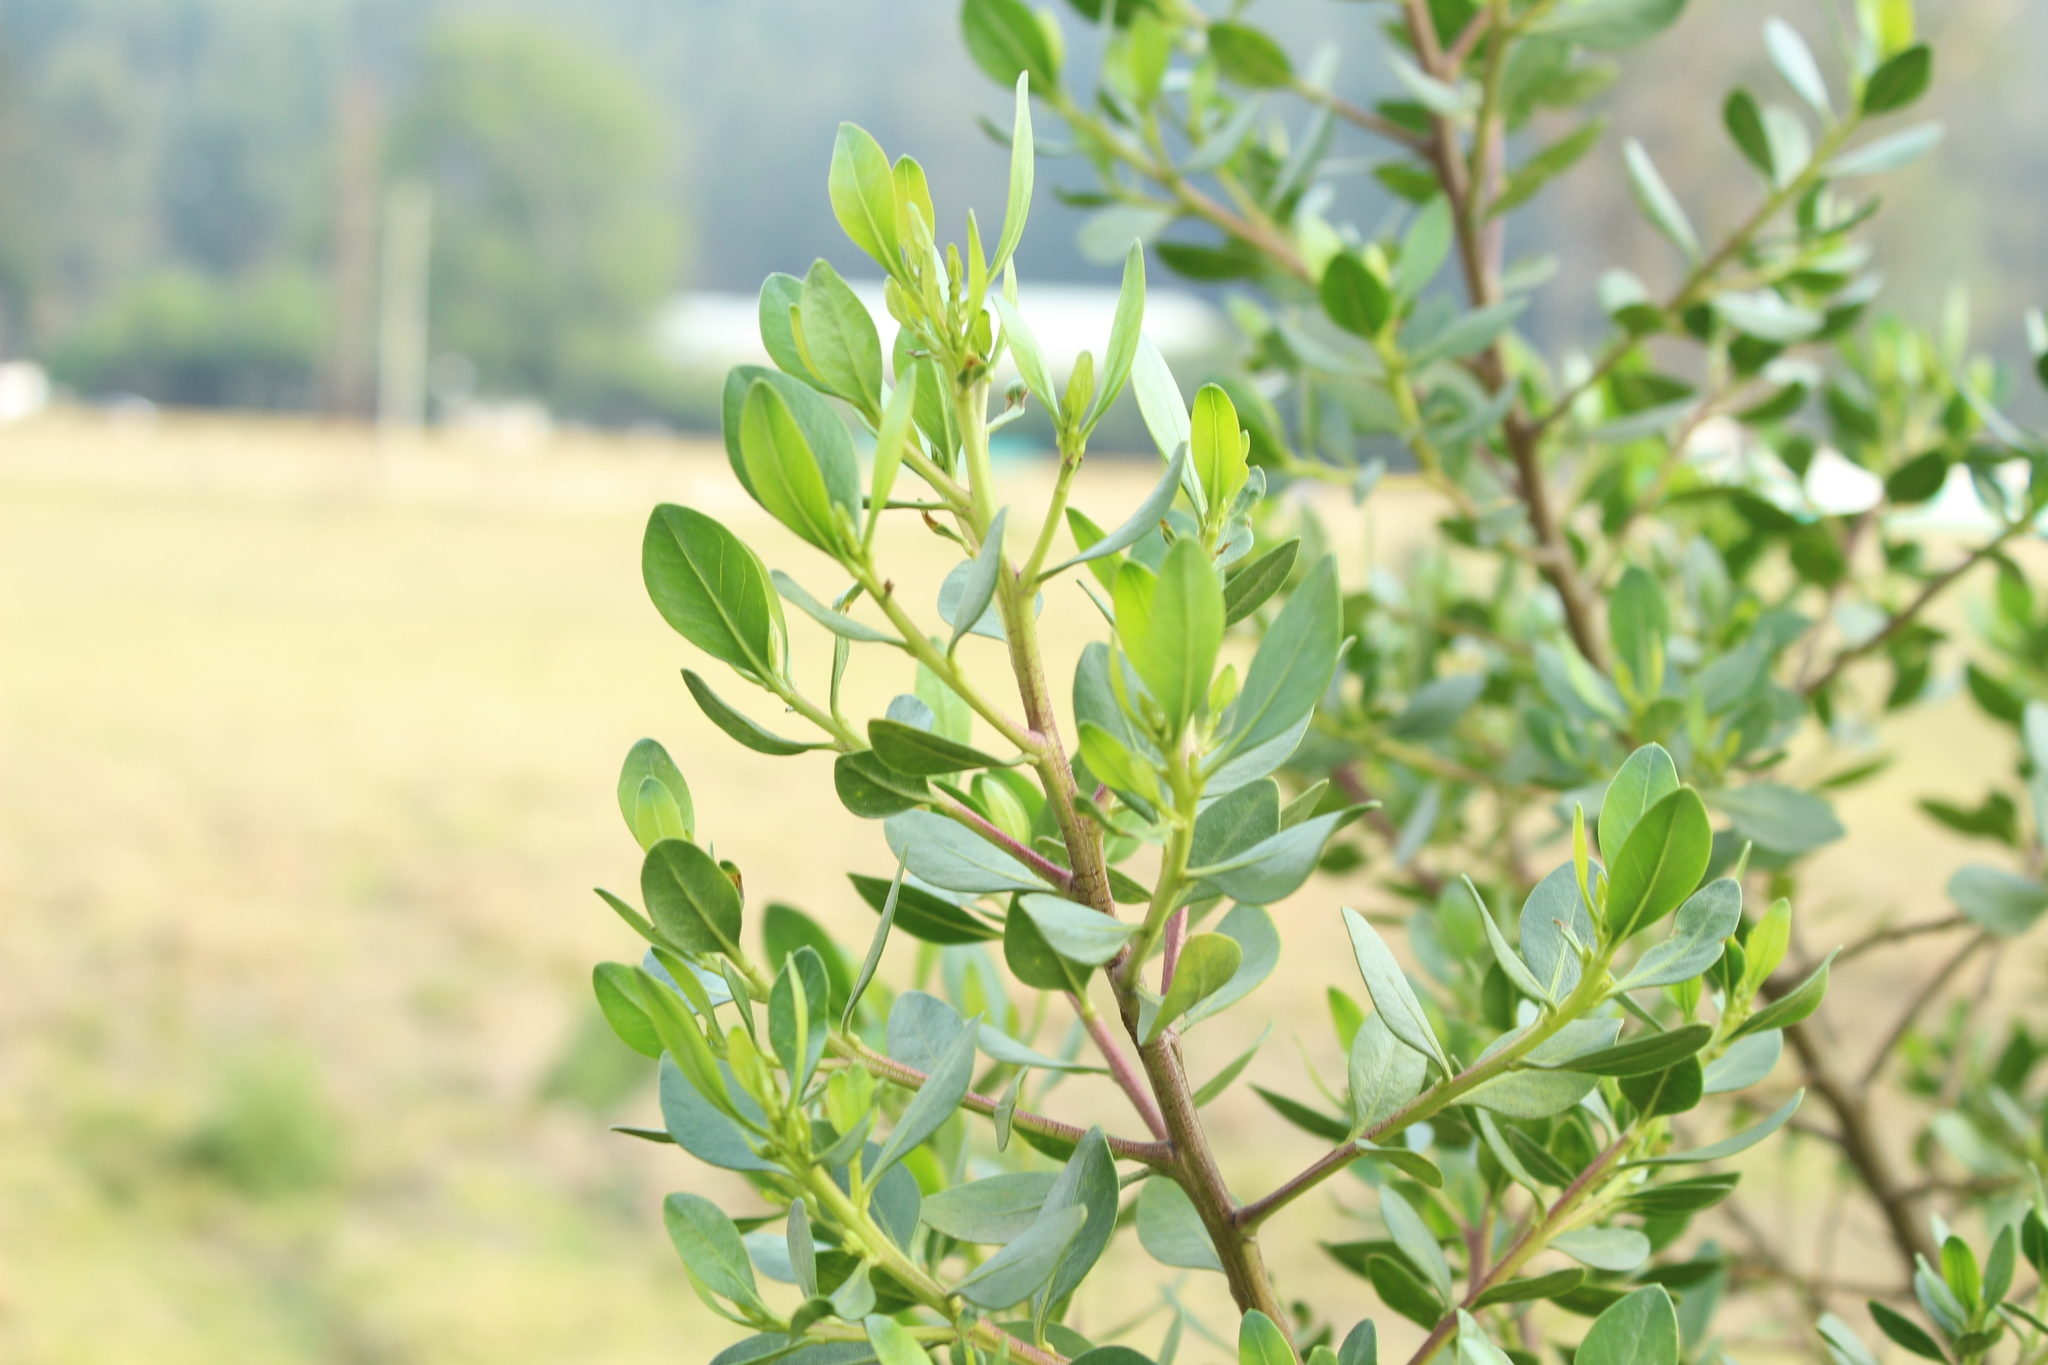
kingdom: Plantae
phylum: Tracheophyta
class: Magnoliopsida
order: Asterales
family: Asteraceae
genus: Baccharis
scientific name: Baccharis nitida
